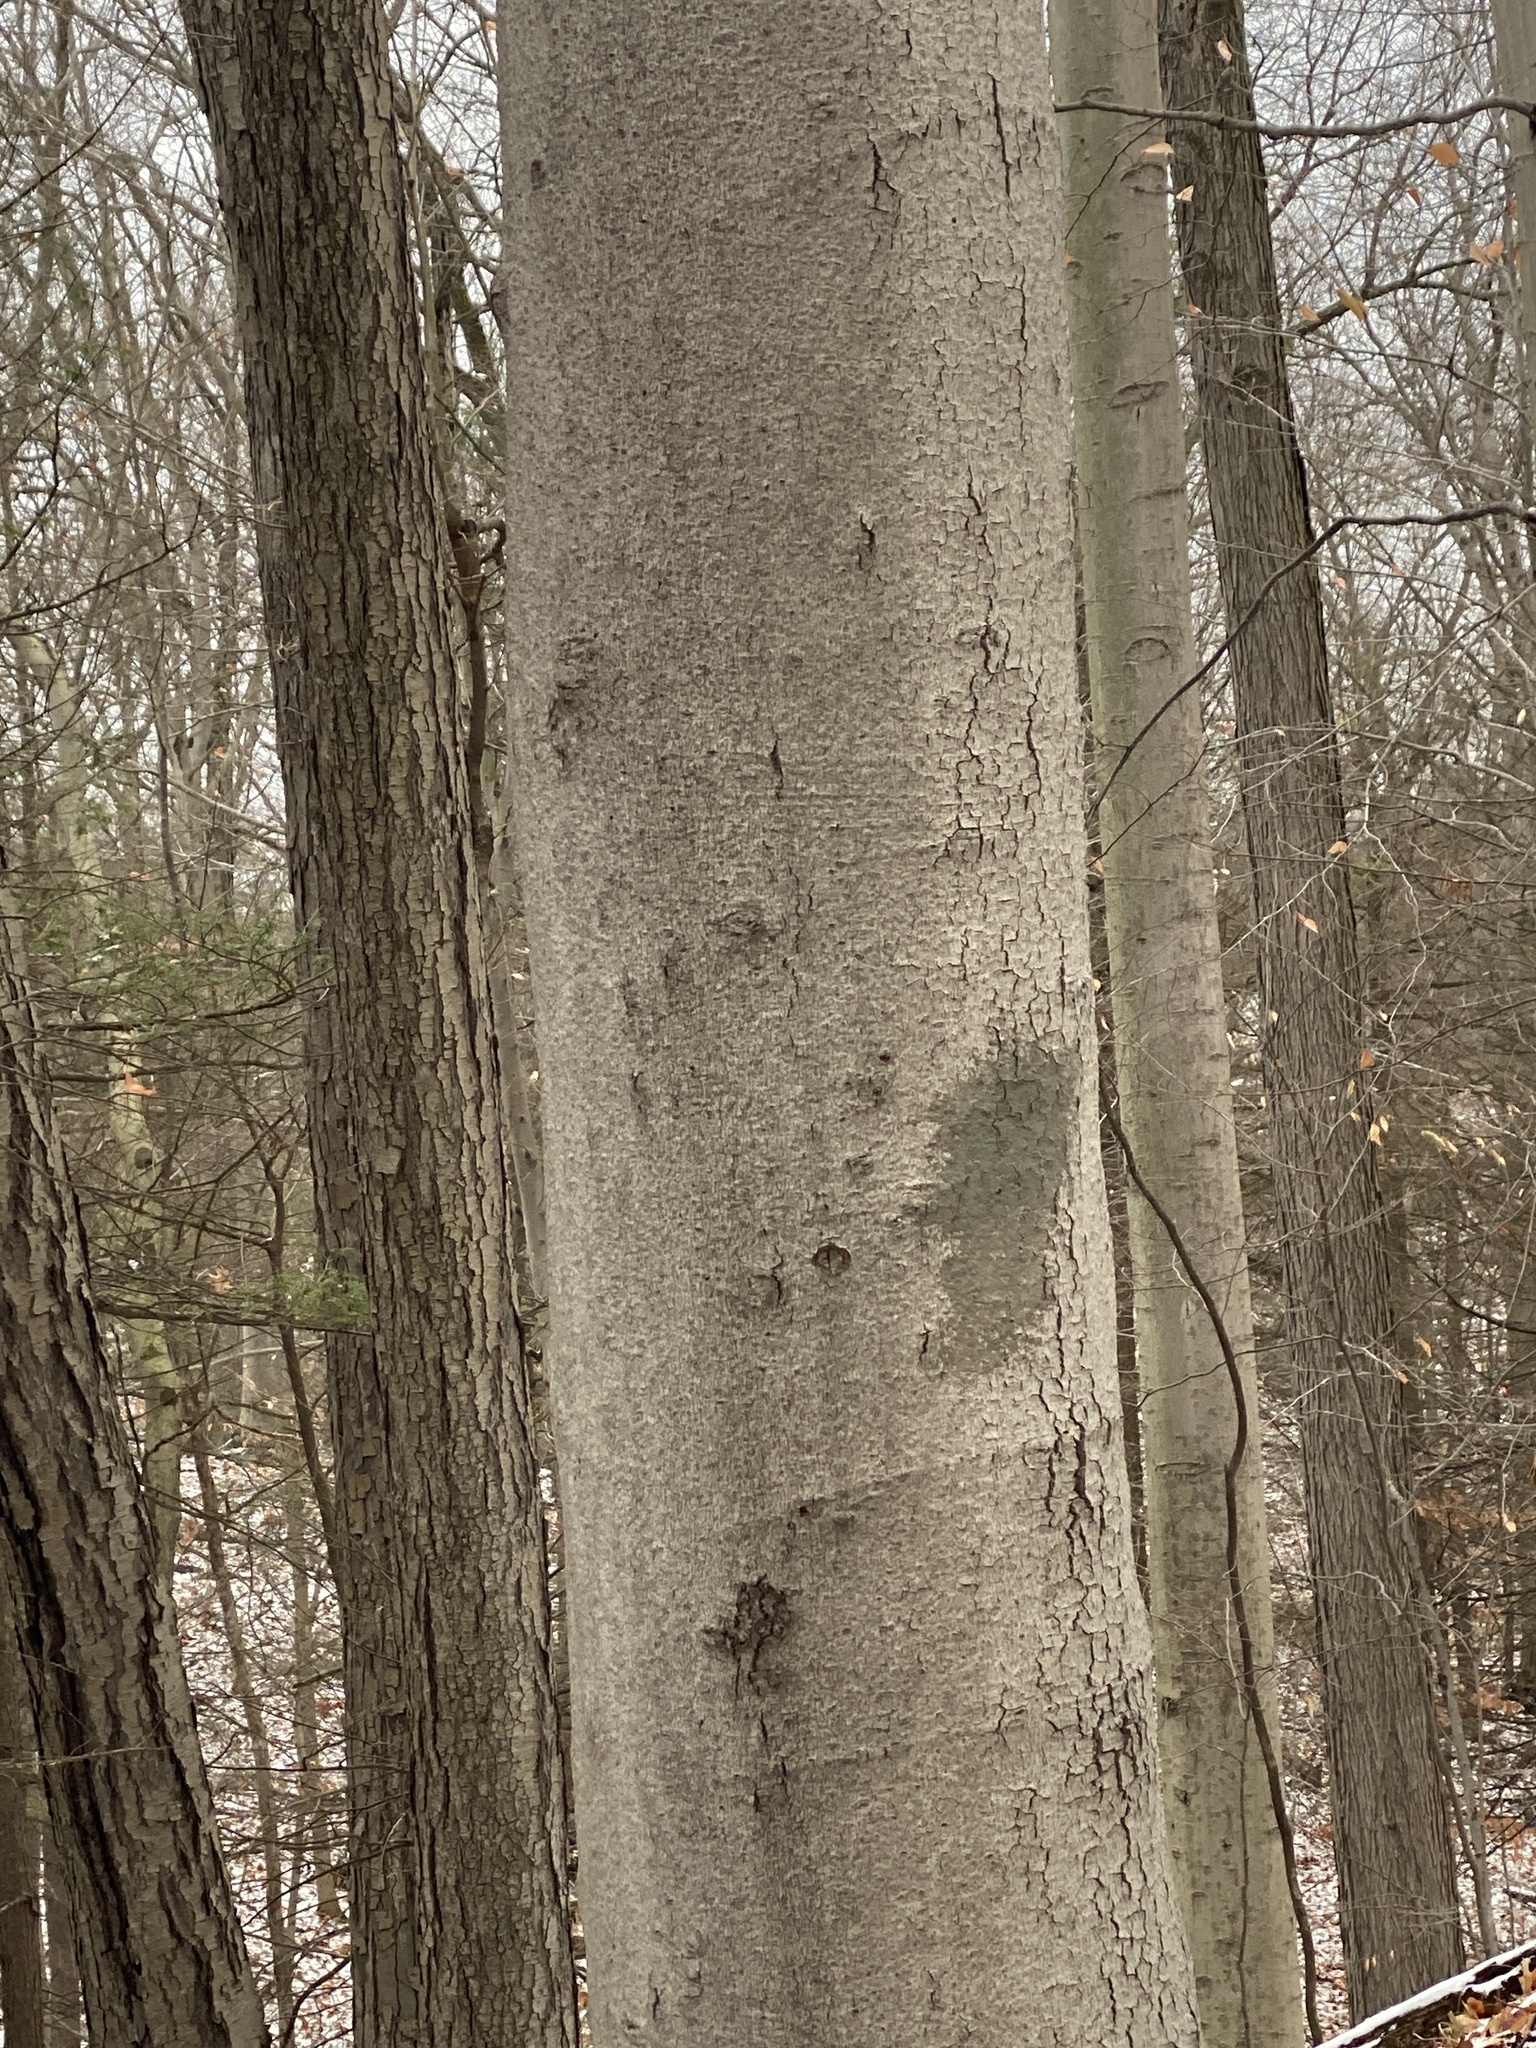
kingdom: Plantae
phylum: Tracheophyta
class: Magnoliopsida
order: Fagales
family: Fagaceae
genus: Fagus
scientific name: Fagus grandifolia
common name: American beech
